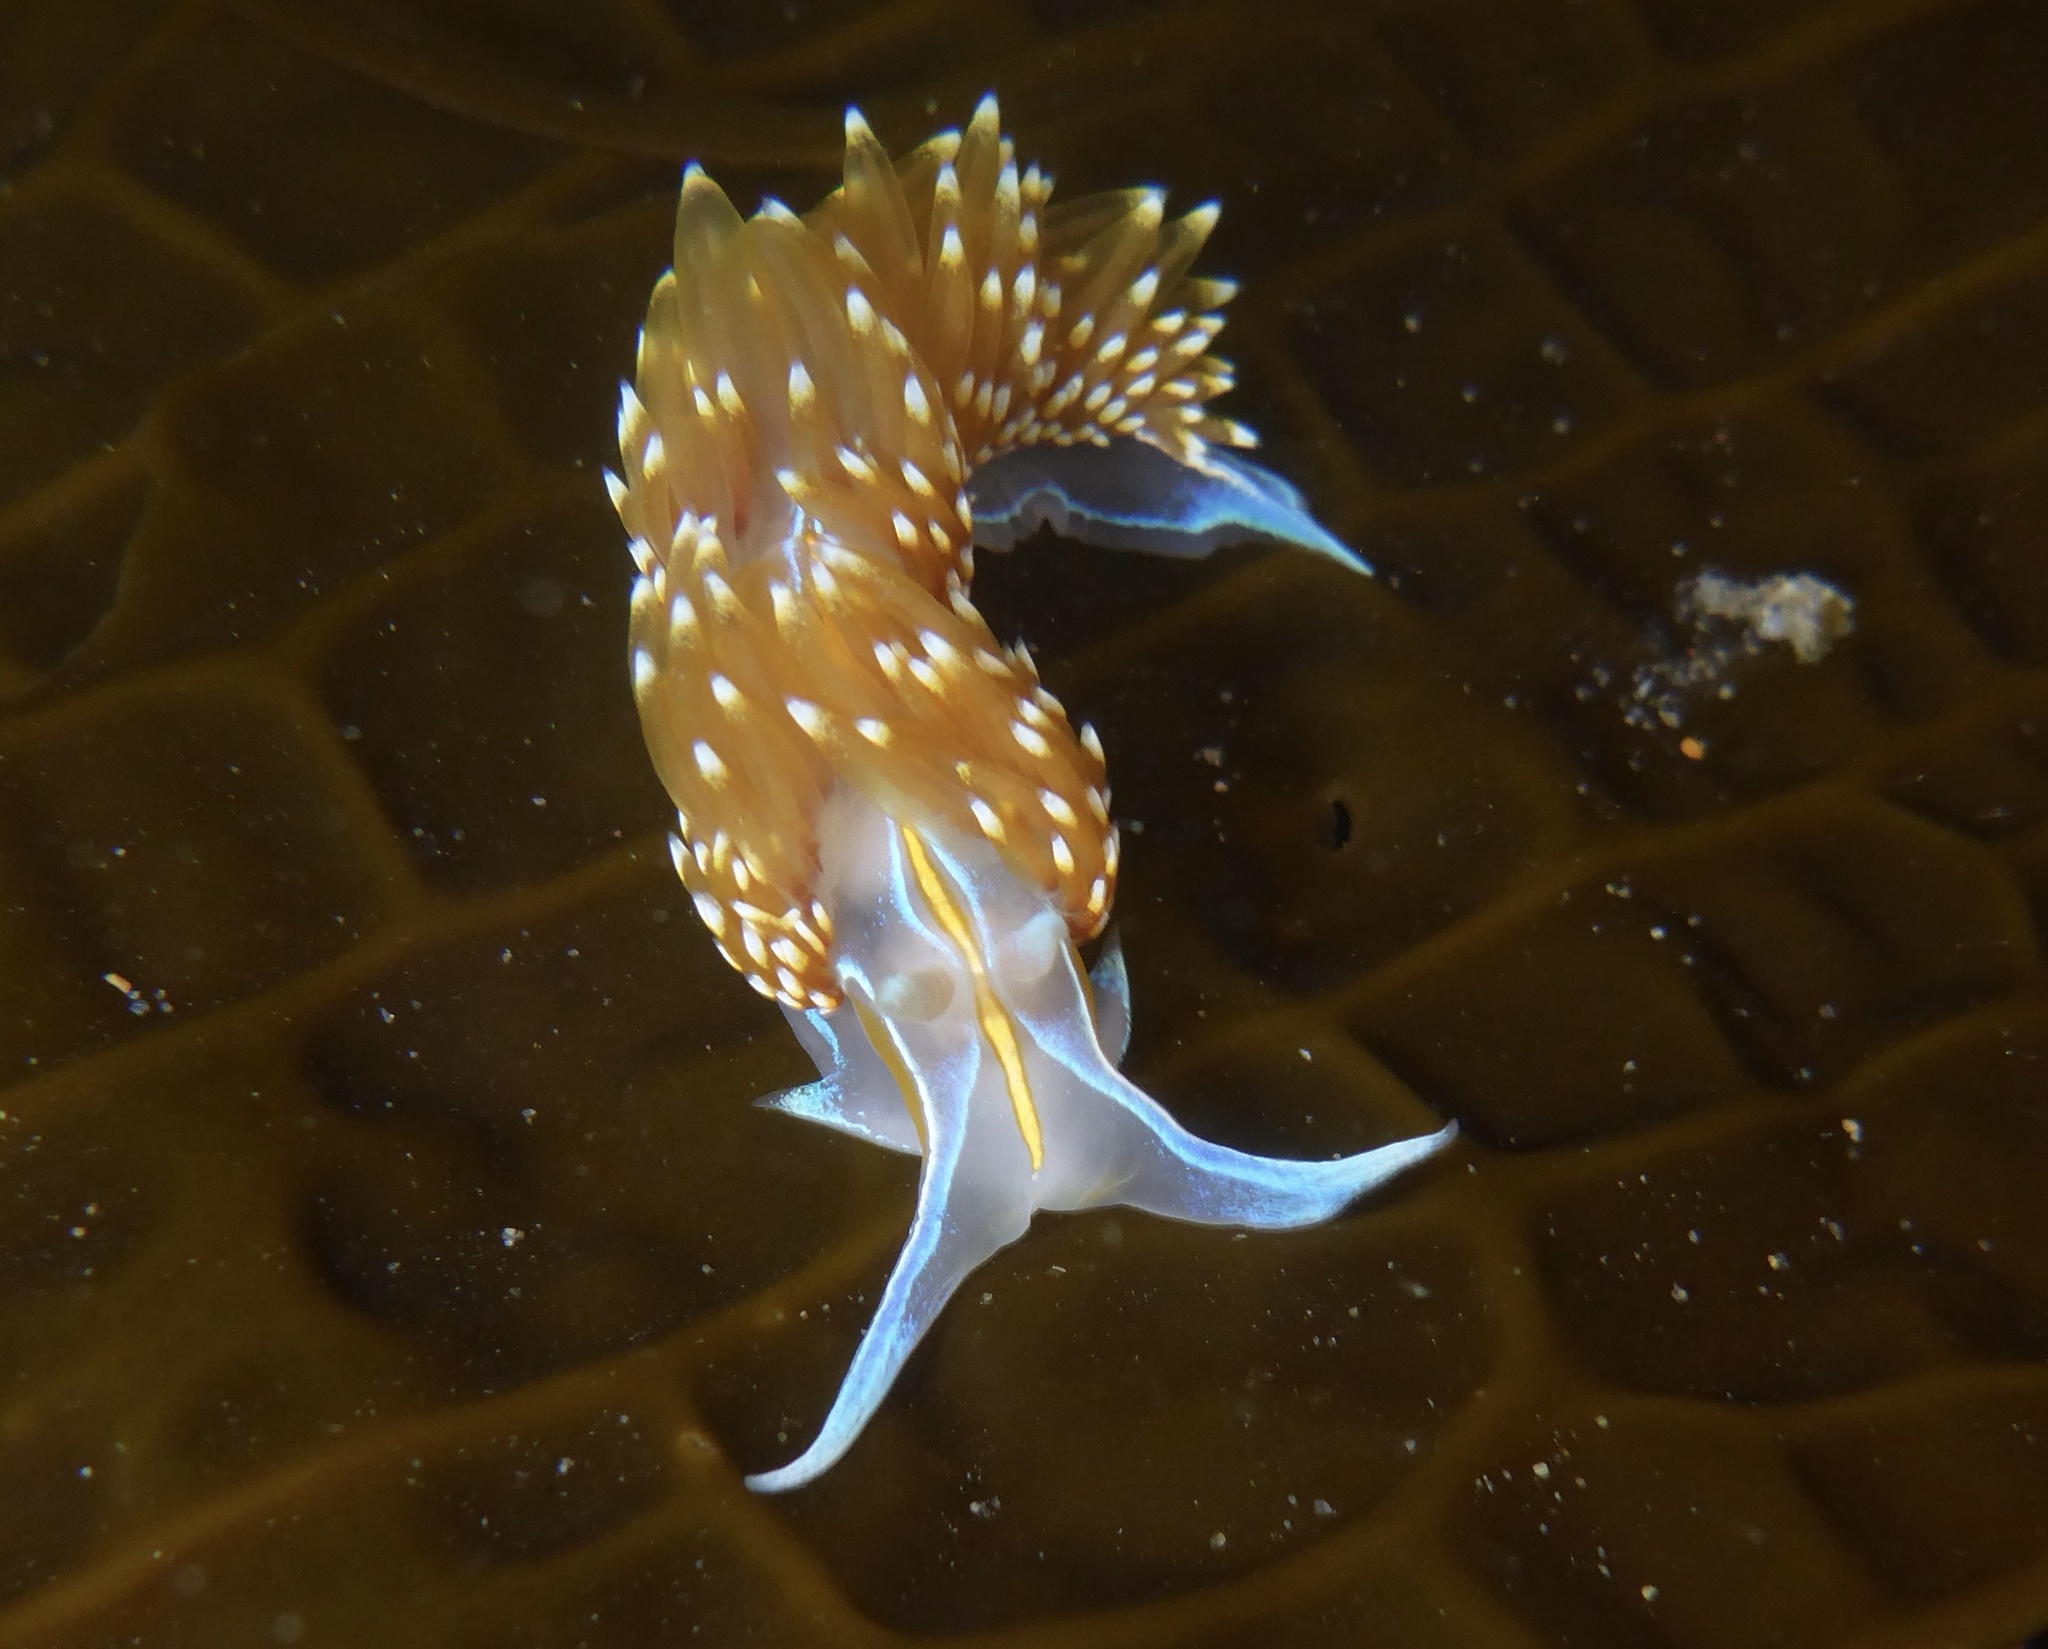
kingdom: Animalia
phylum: Mollusca
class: Gastropoda
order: Nudibranchia
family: Myrrhinidae
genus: Hermissenda
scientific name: Hermissenda opalescens
